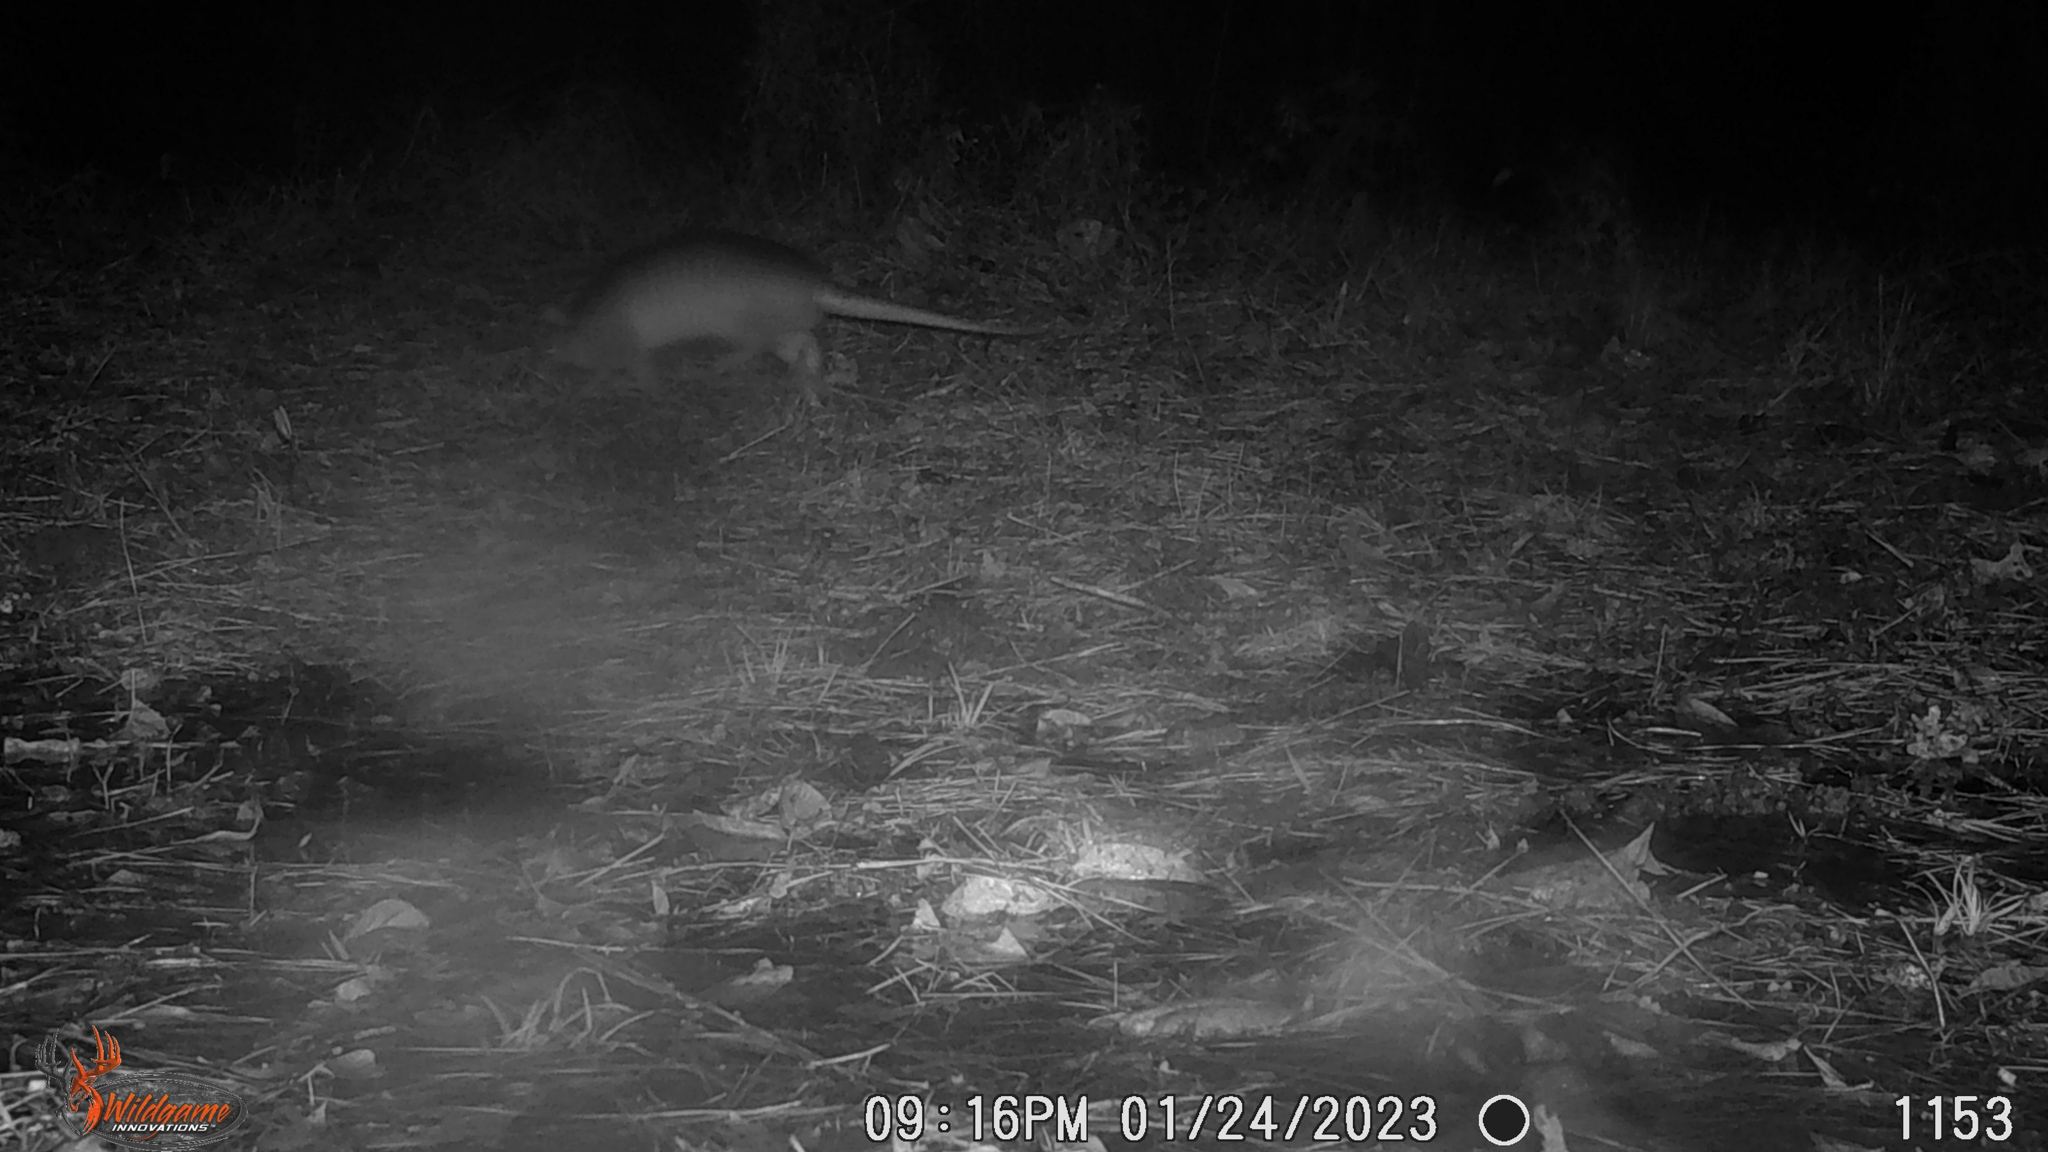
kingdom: Animalia
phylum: Chordata
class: Mammalia
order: Cingulata
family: Dasypodidae
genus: Dasypus
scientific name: Dasypus novemcinctus
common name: Nine-banded armadillo
